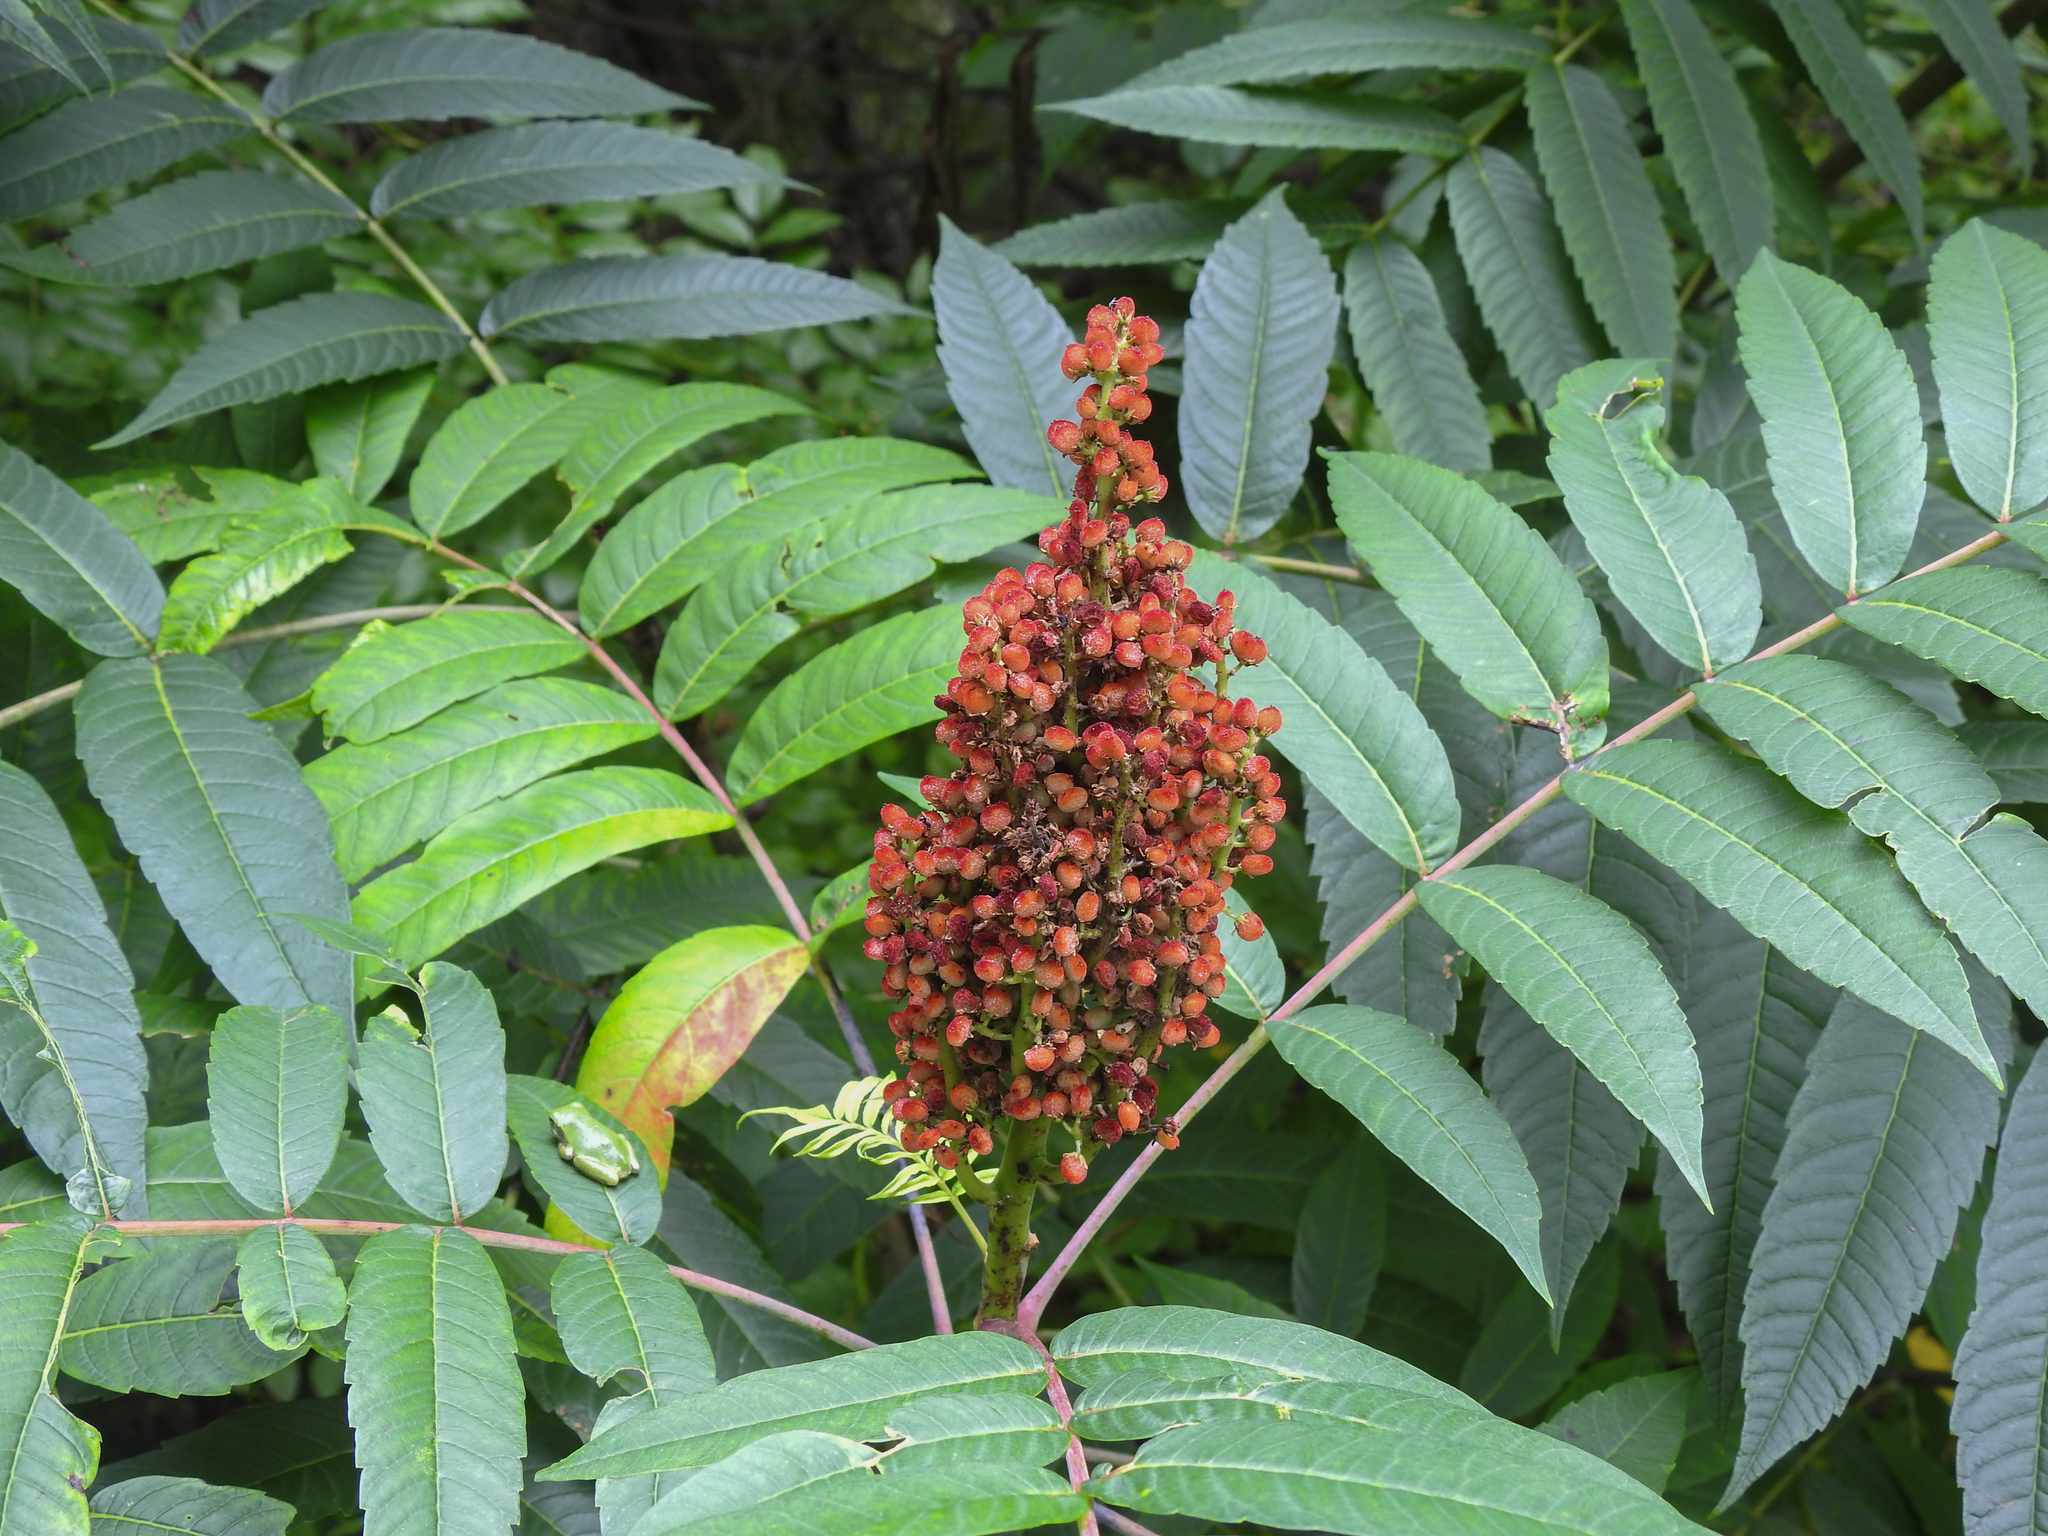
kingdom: Plantae
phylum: Tracheophyta
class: Magnoliopsida
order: Sapindales
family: Anacardiaceae
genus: Rhus
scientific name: Rhus glabra
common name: Scarlet sumac
